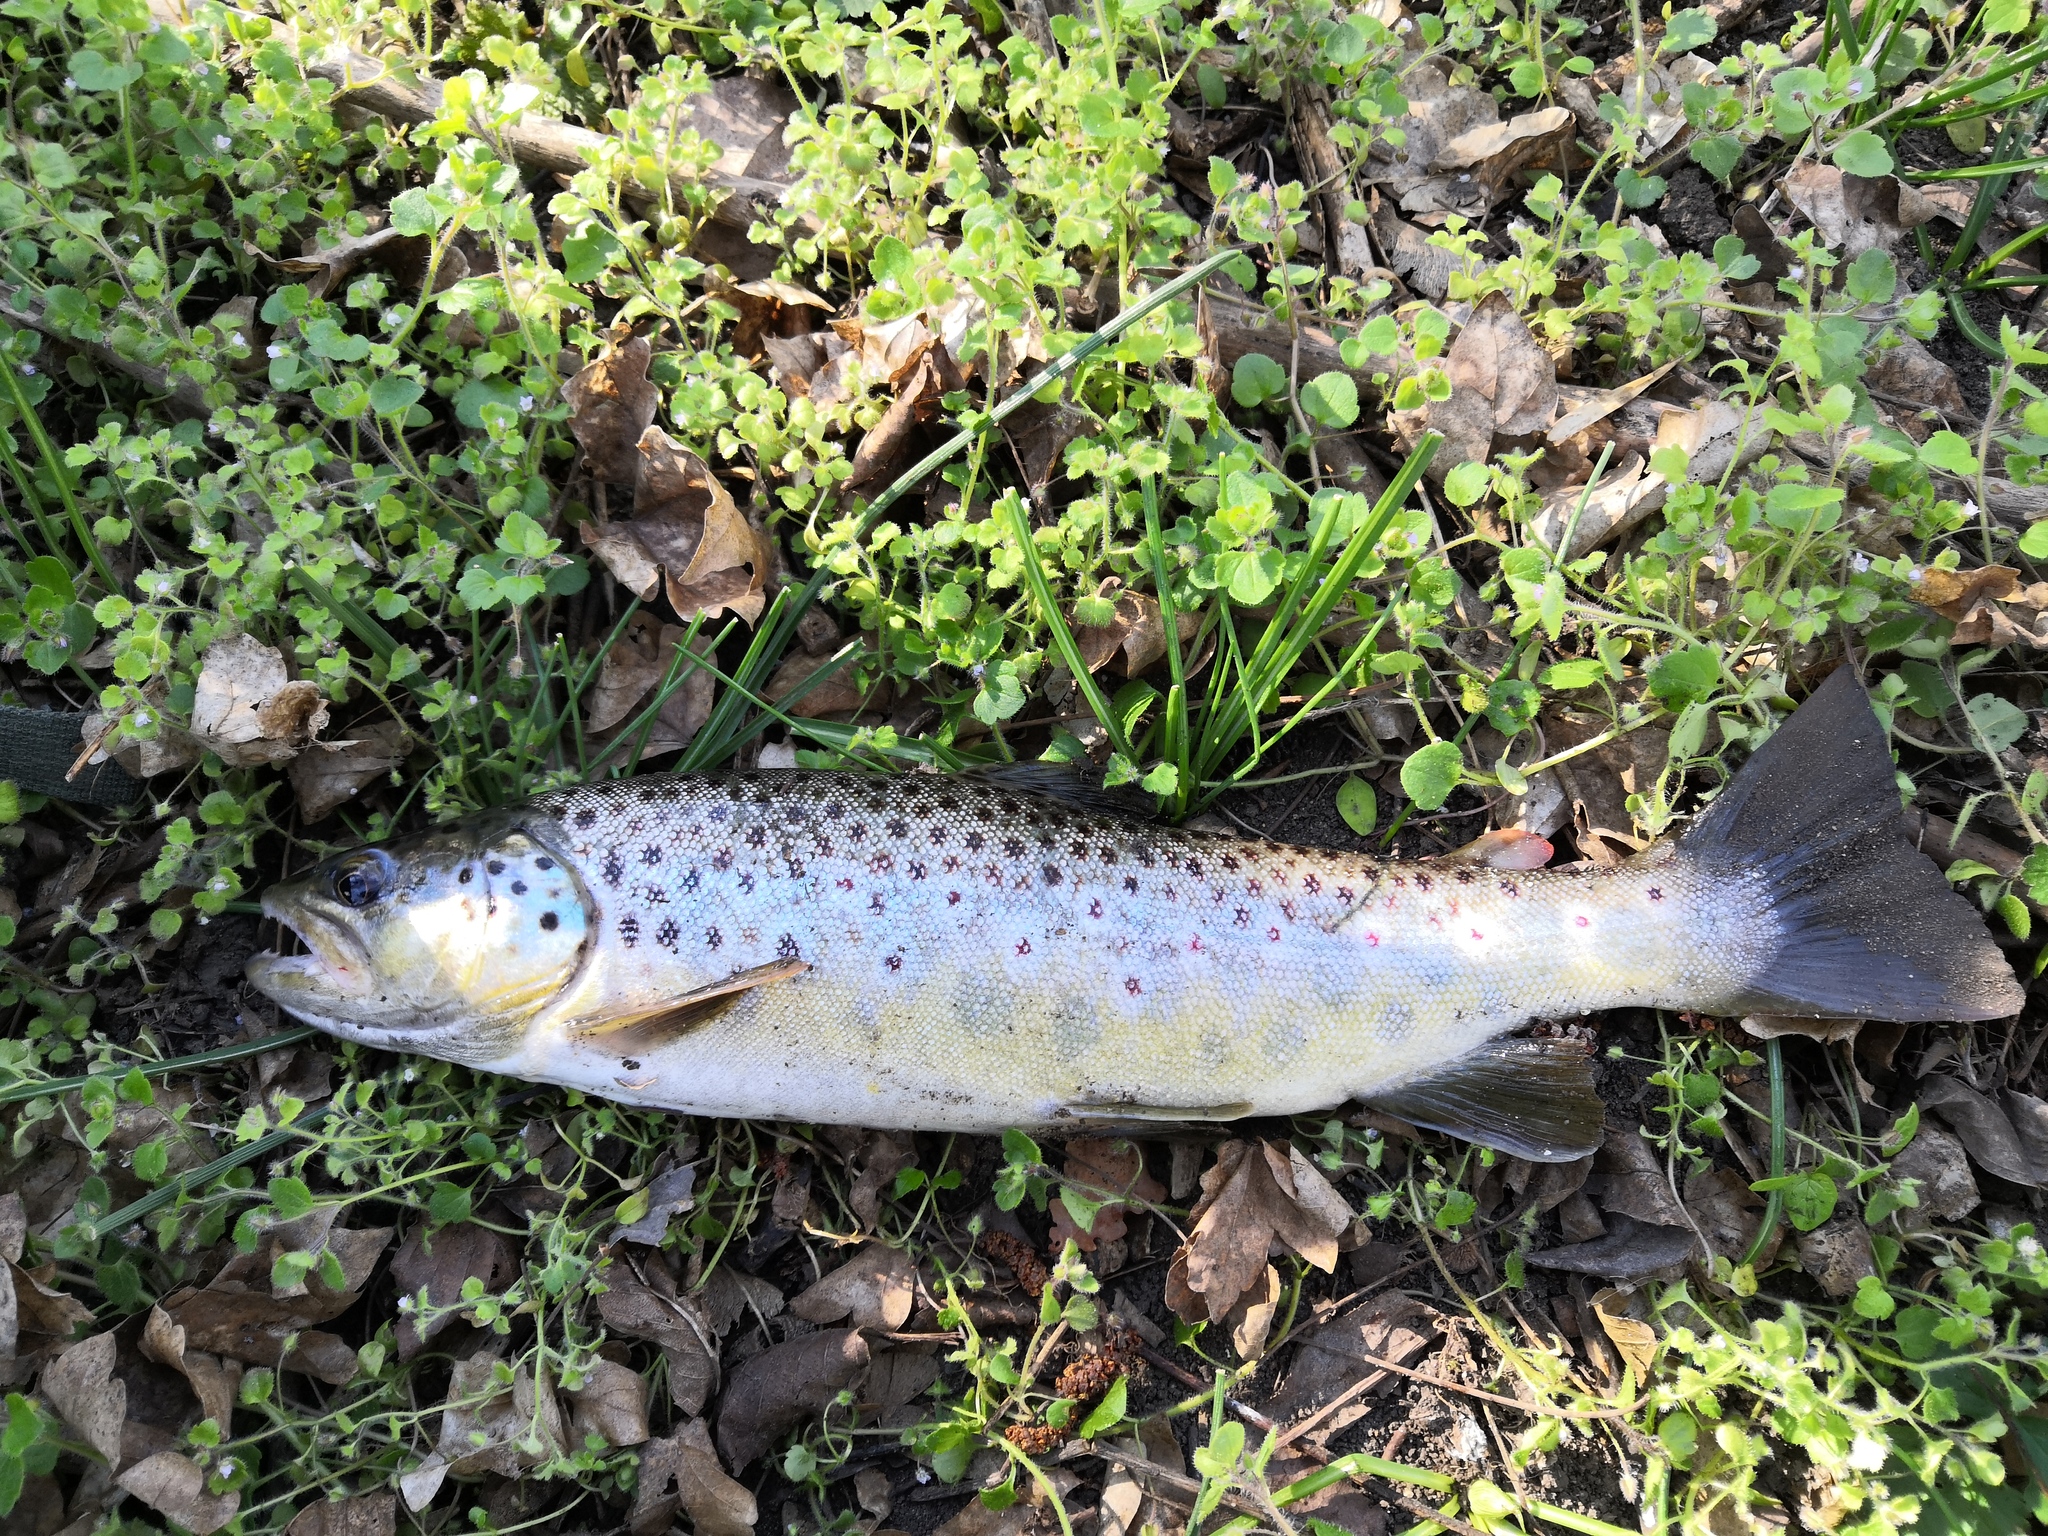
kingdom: Animalia
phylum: Chordata
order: Salmoniformes
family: Salmonidae
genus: Salmo
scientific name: Salmo trutta
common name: Brown trout
